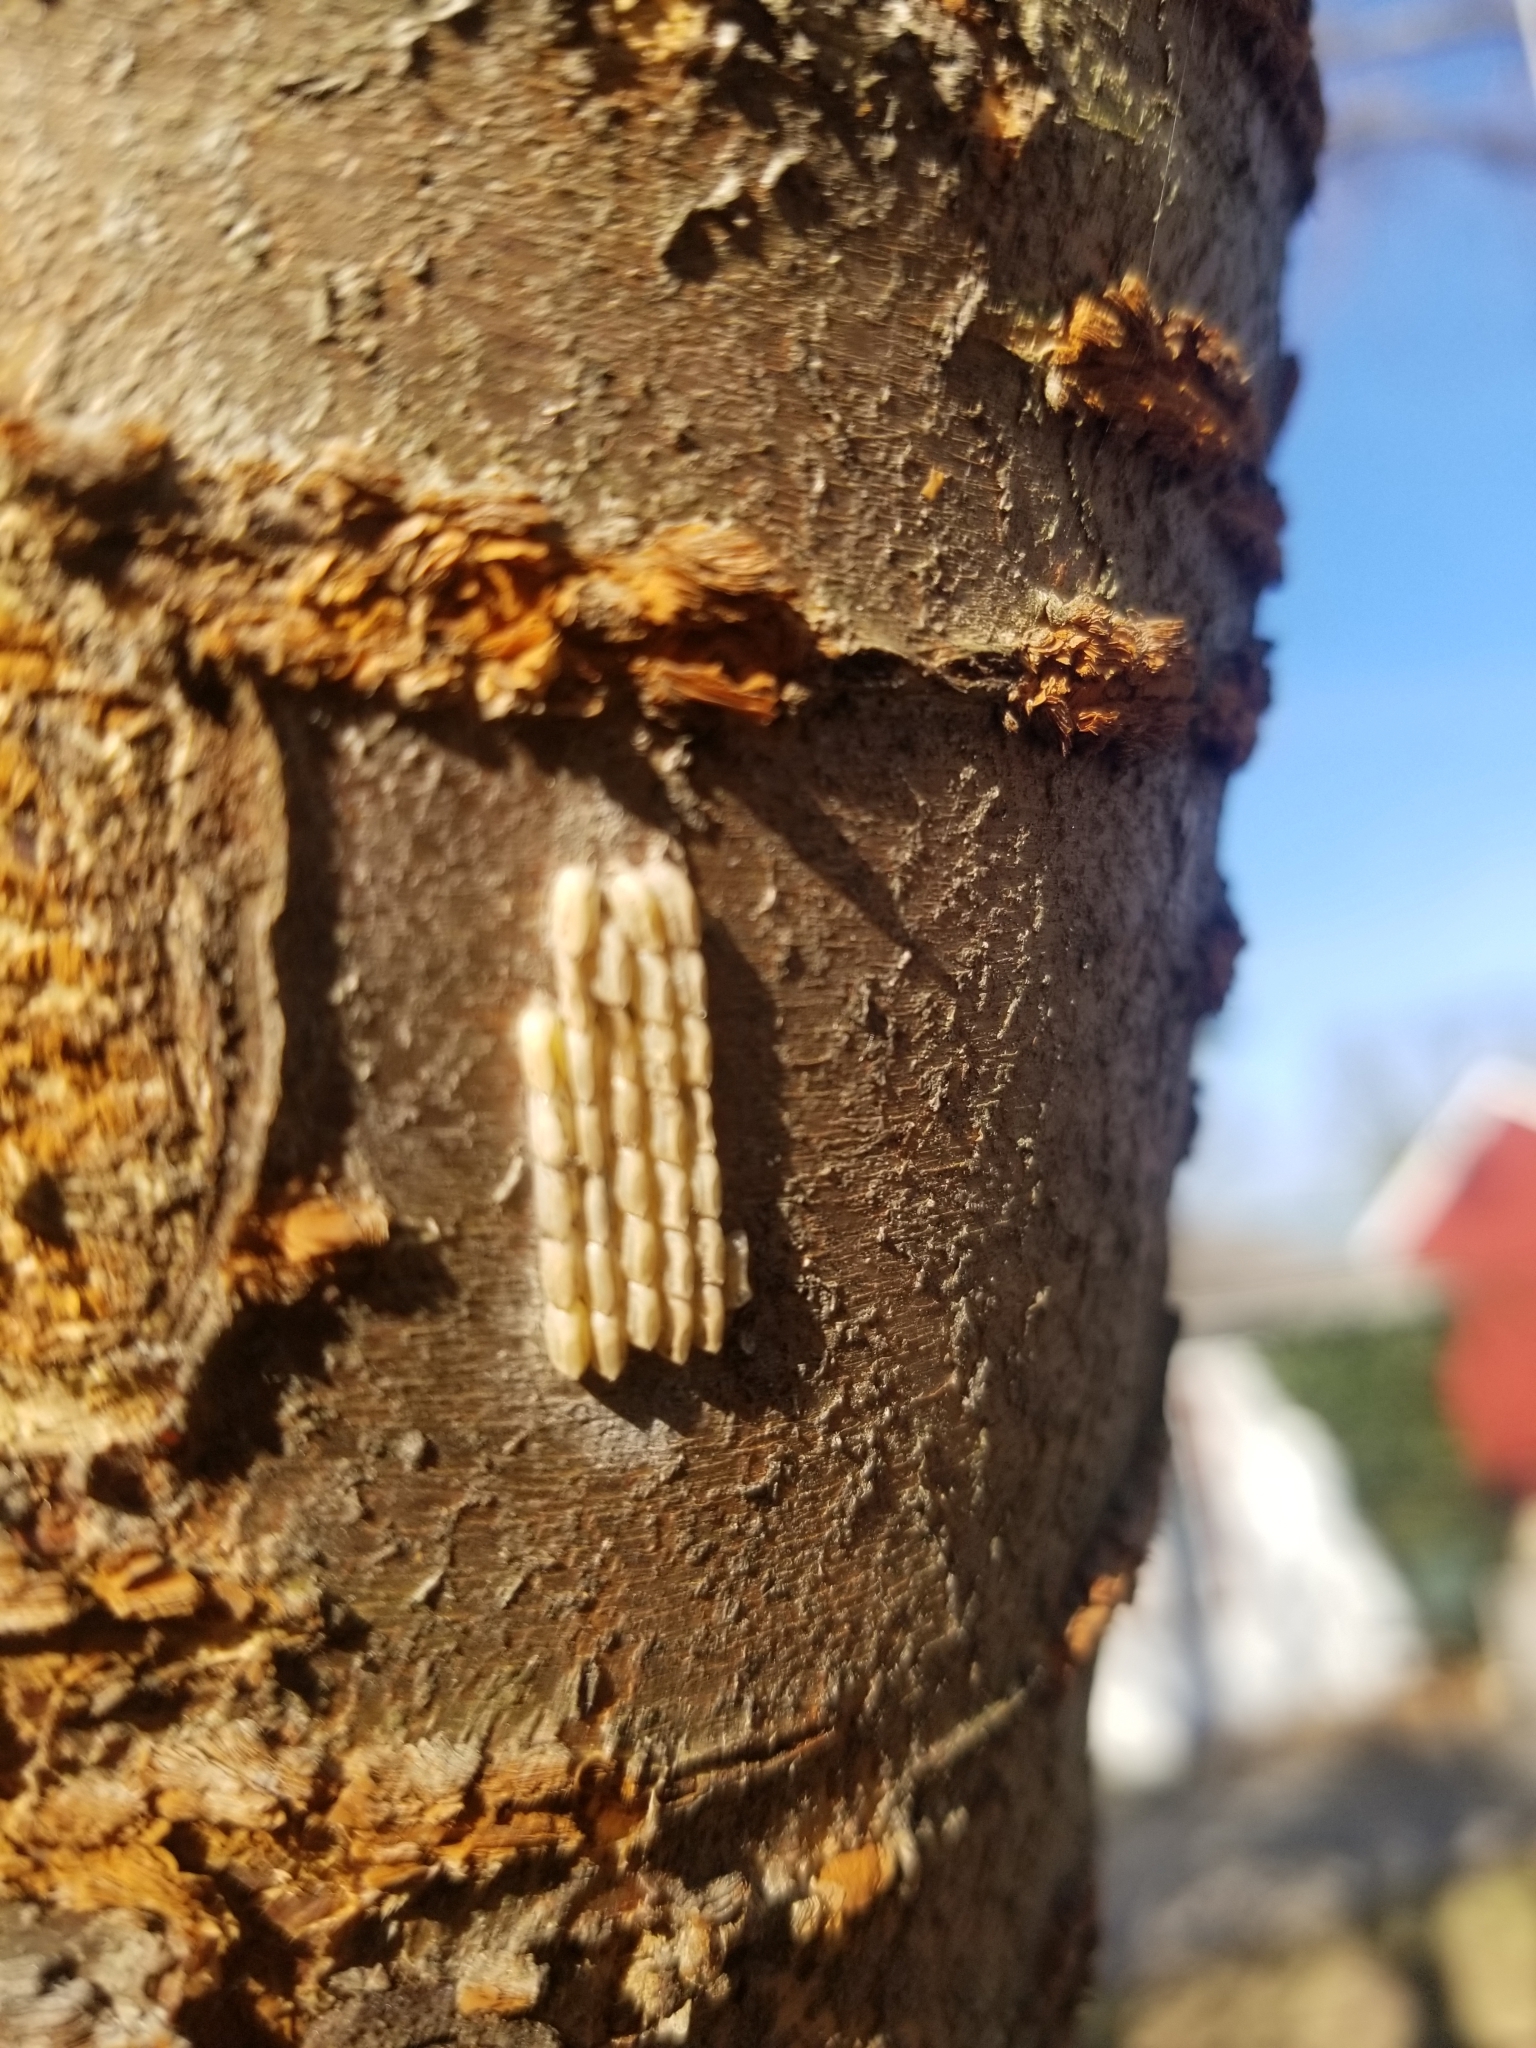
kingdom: Animalia
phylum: Arthropoda
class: Insecta
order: Hemiptera
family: Fulgoridae
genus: Lycorma
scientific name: Lycorma delicatula
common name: Spotted lanternfly
